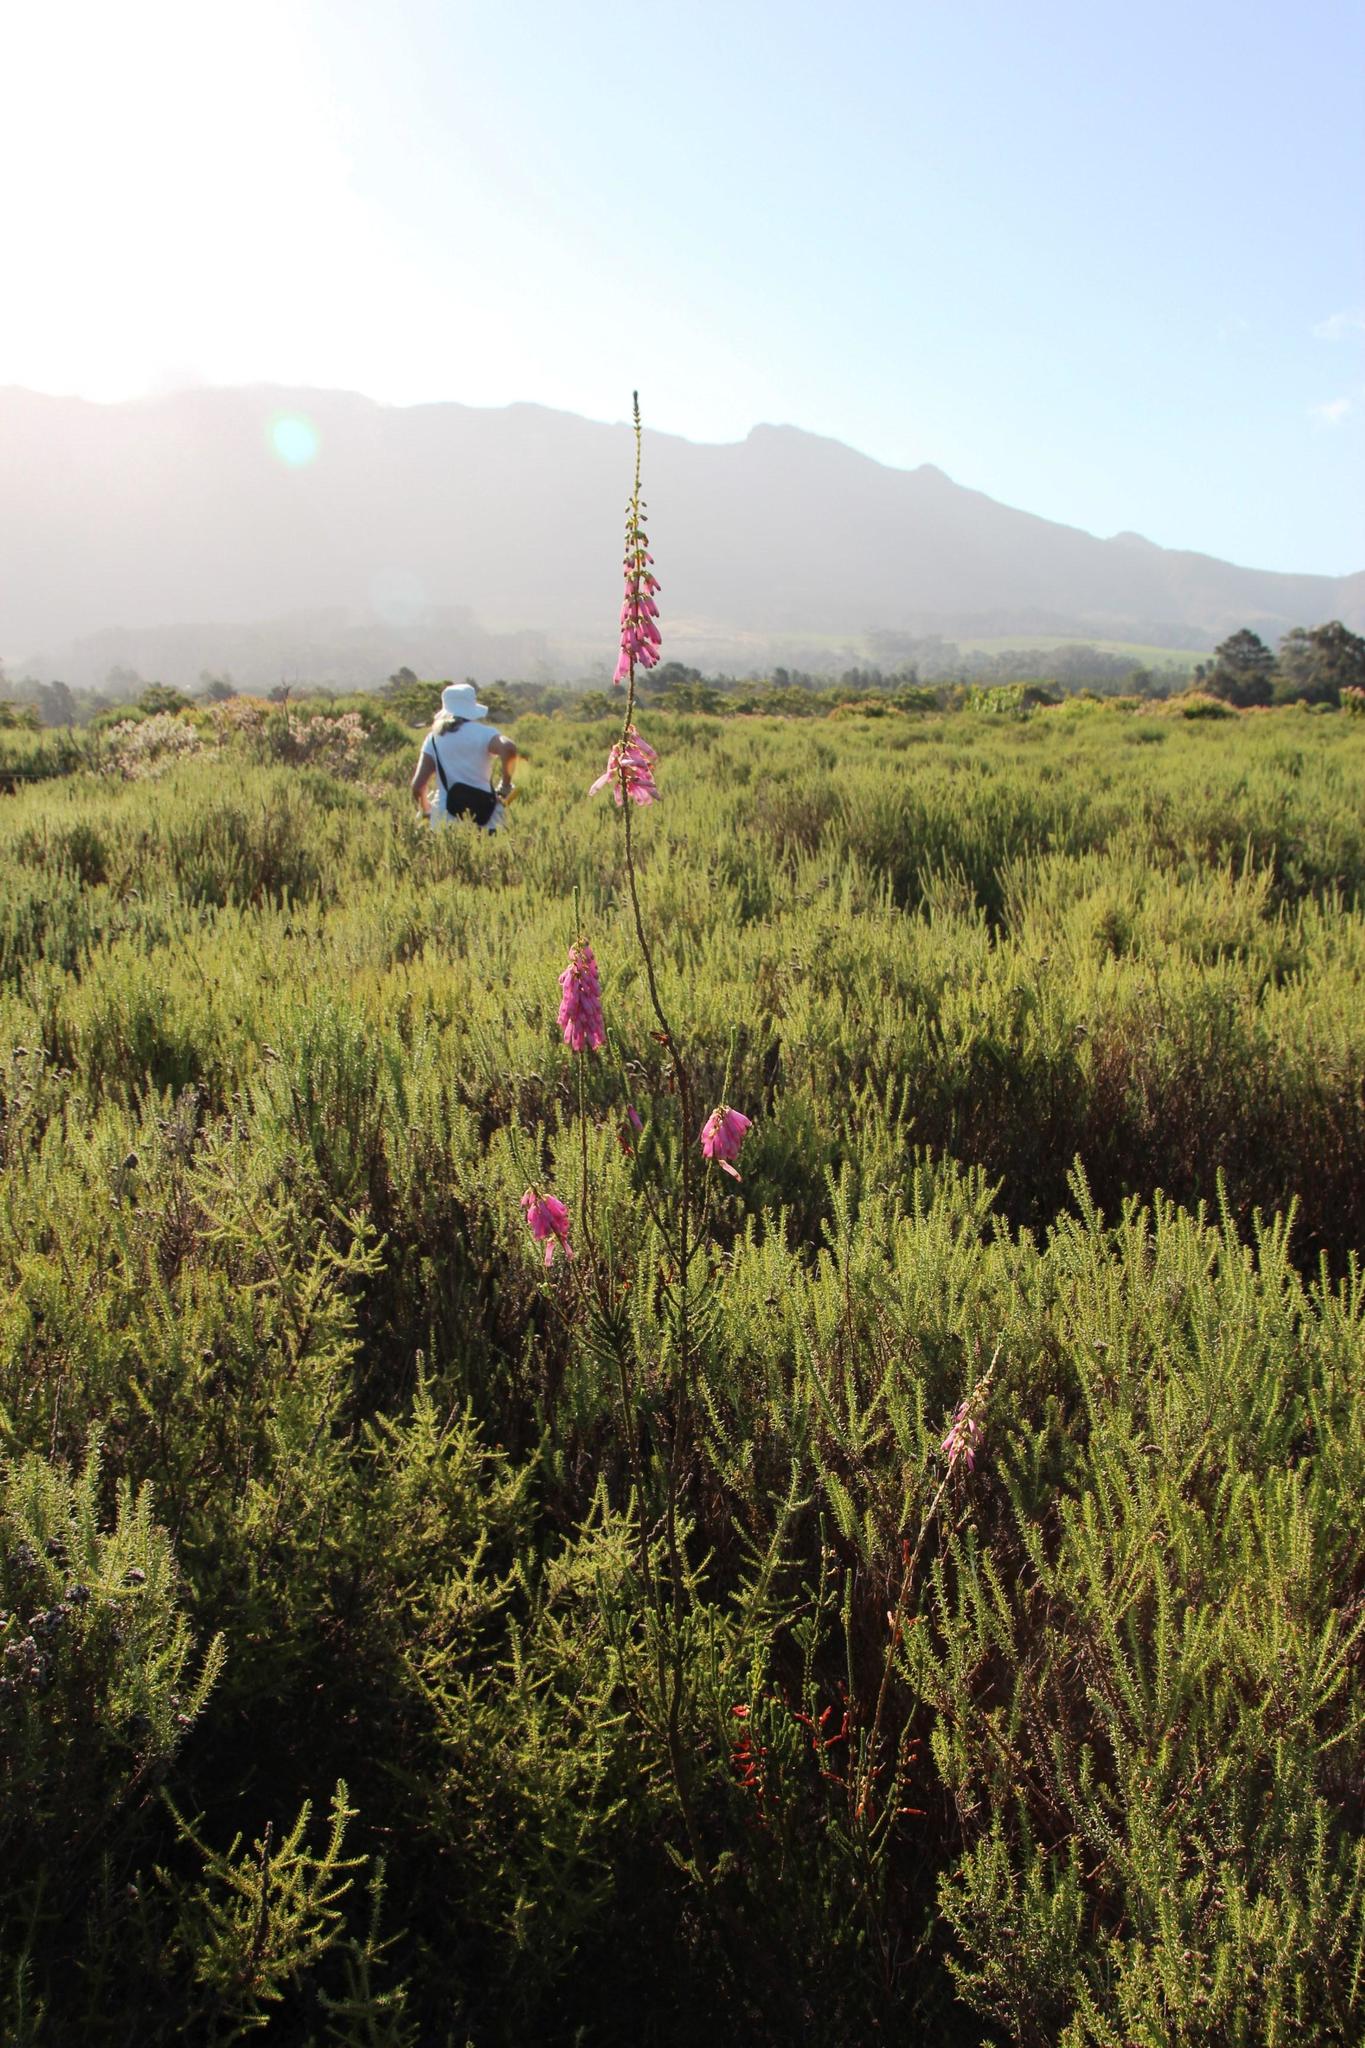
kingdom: Plantae
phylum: Tracheophyta
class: Magnoliopsida
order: Ericales
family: Ericaceae
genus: Erica
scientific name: Erica mammosa
